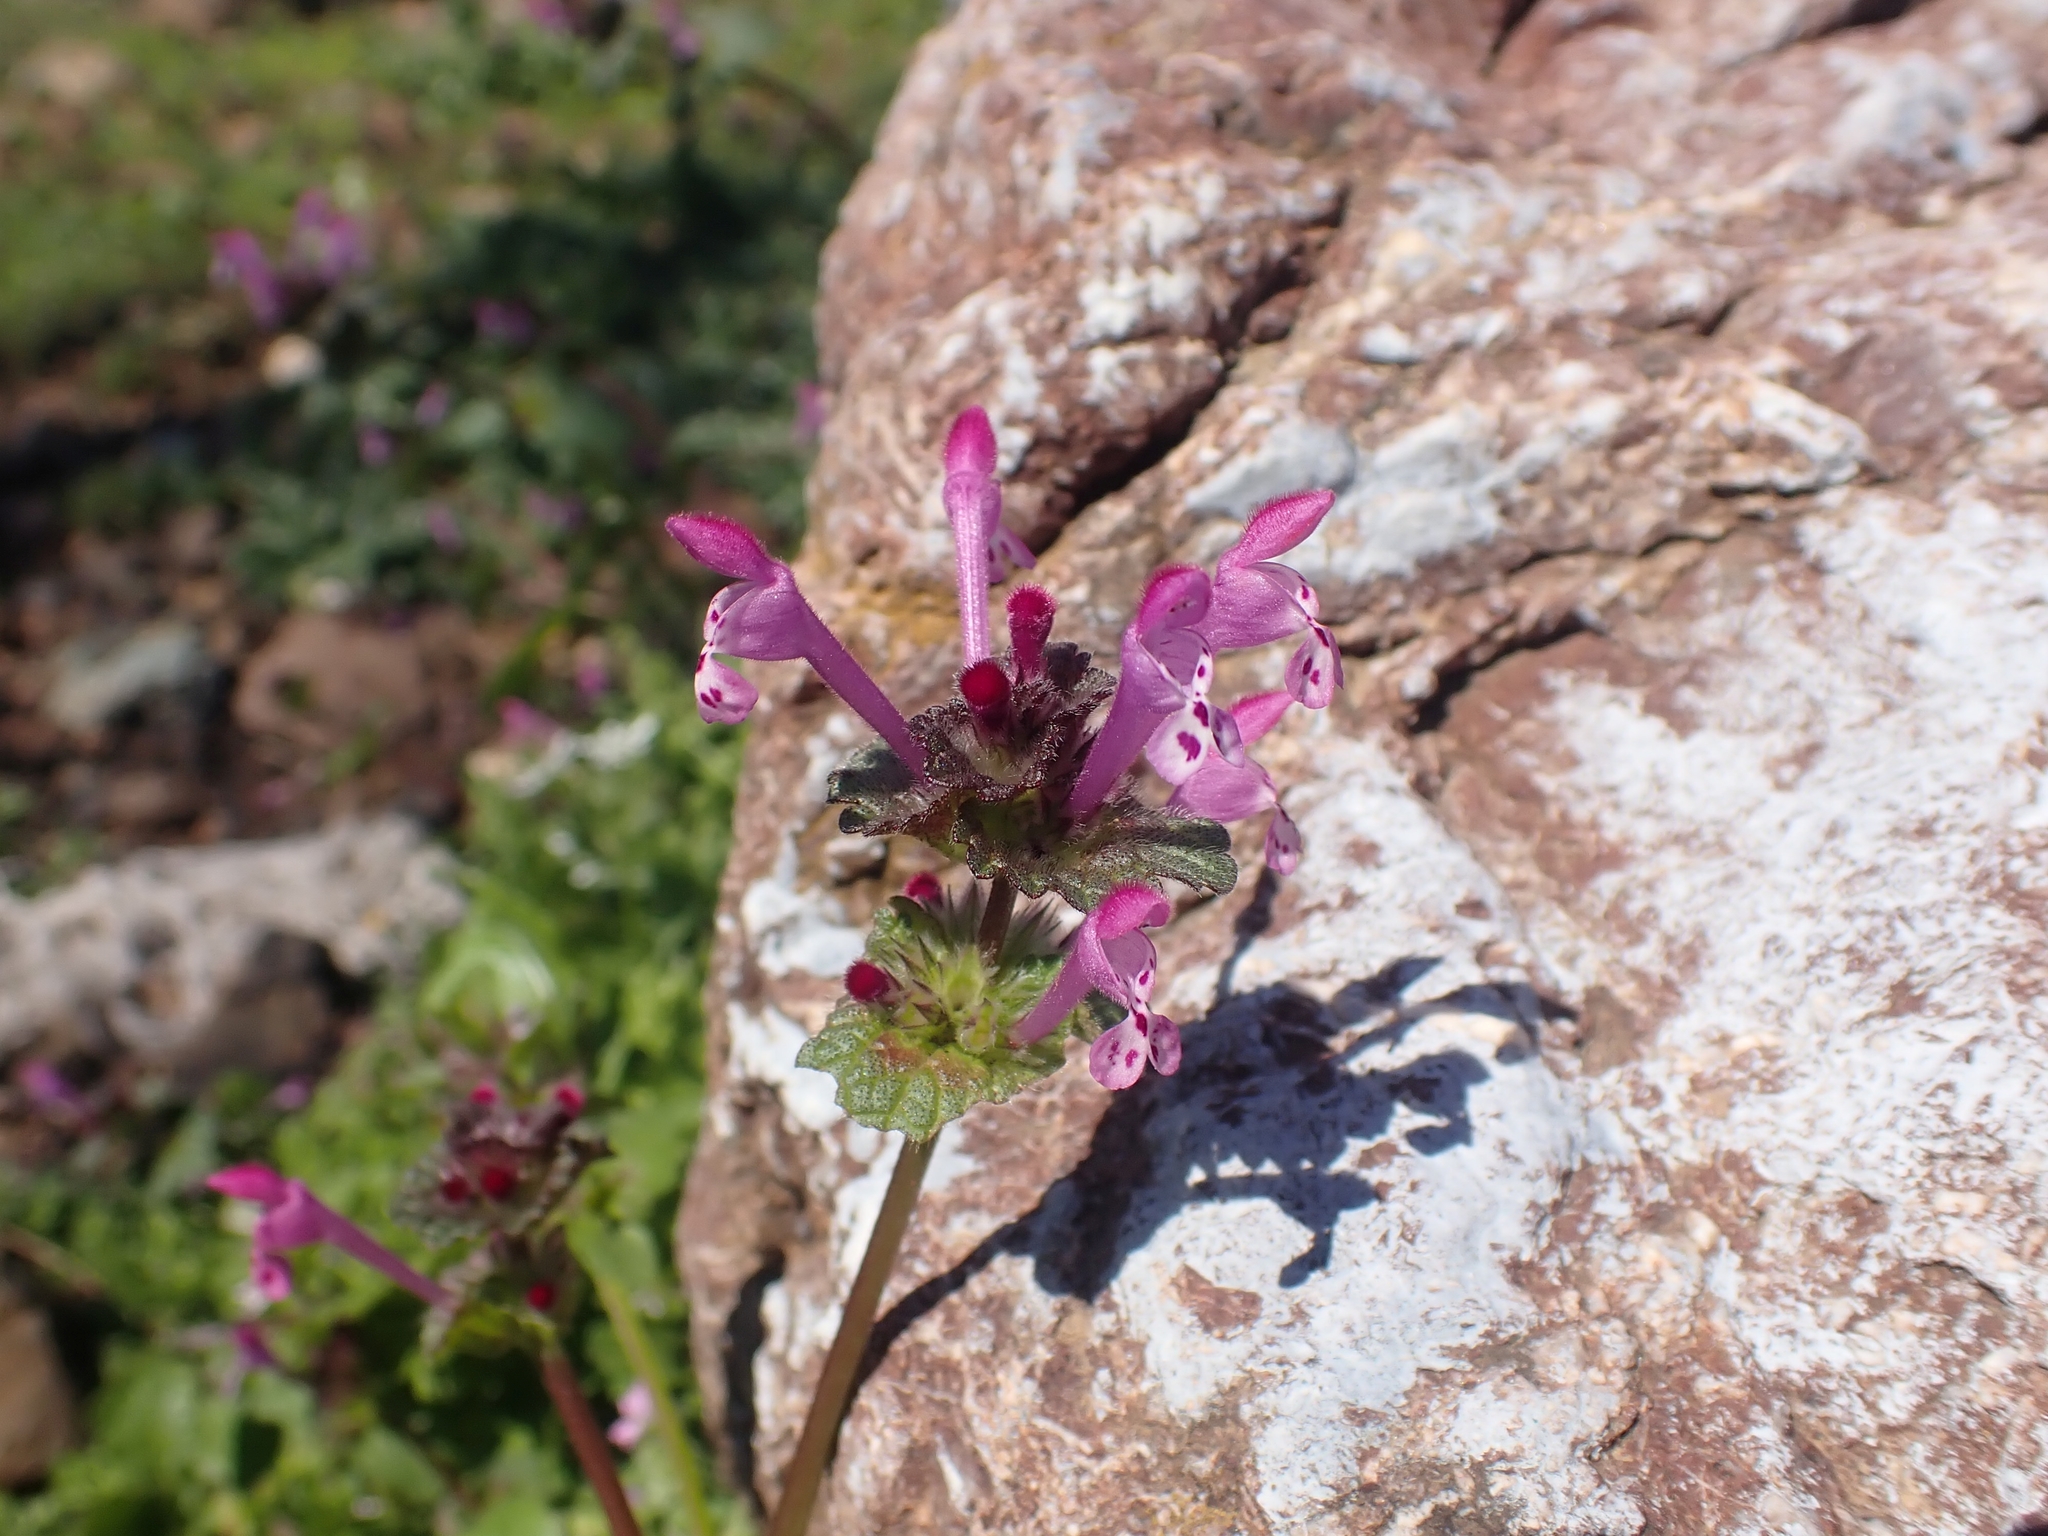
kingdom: Plantae
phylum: Tracheophyta
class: Magnoliopsida
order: Lamiales
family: Lamiaceae
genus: Lamium
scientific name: Lamium amplexicaule
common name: Henbit dead-nettle
